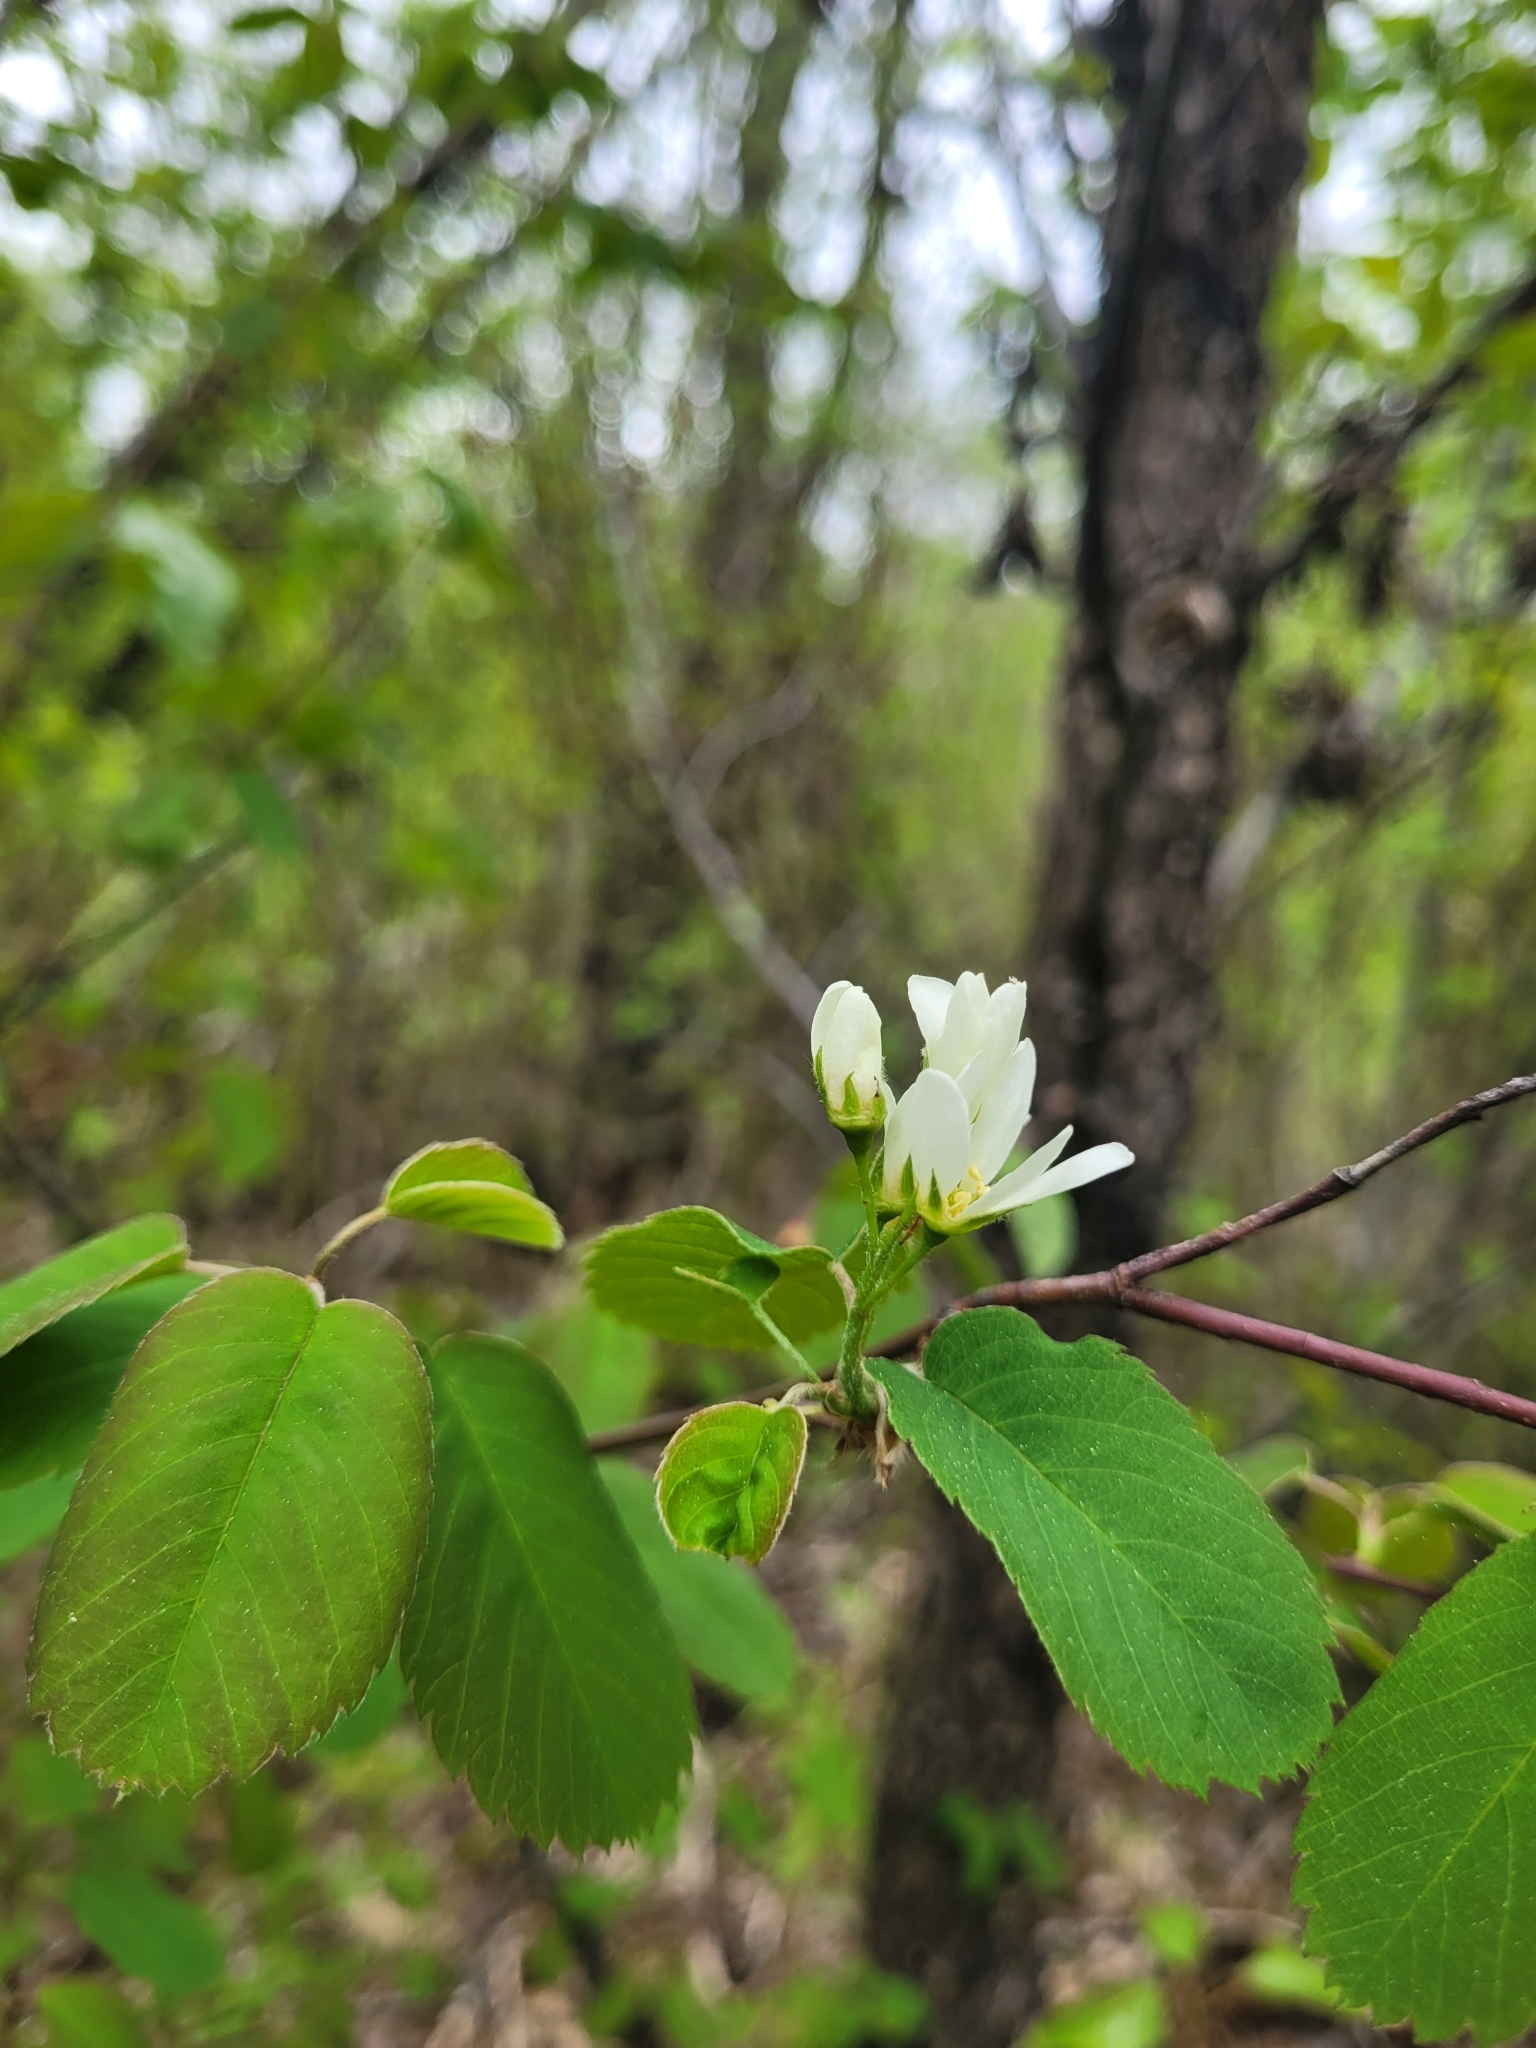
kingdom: Plantae
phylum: Tracheophyta
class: Magnoliopsida
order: Rosales
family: Rosaceae
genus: Amelanchier
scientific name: Amelanchier alnifolia
